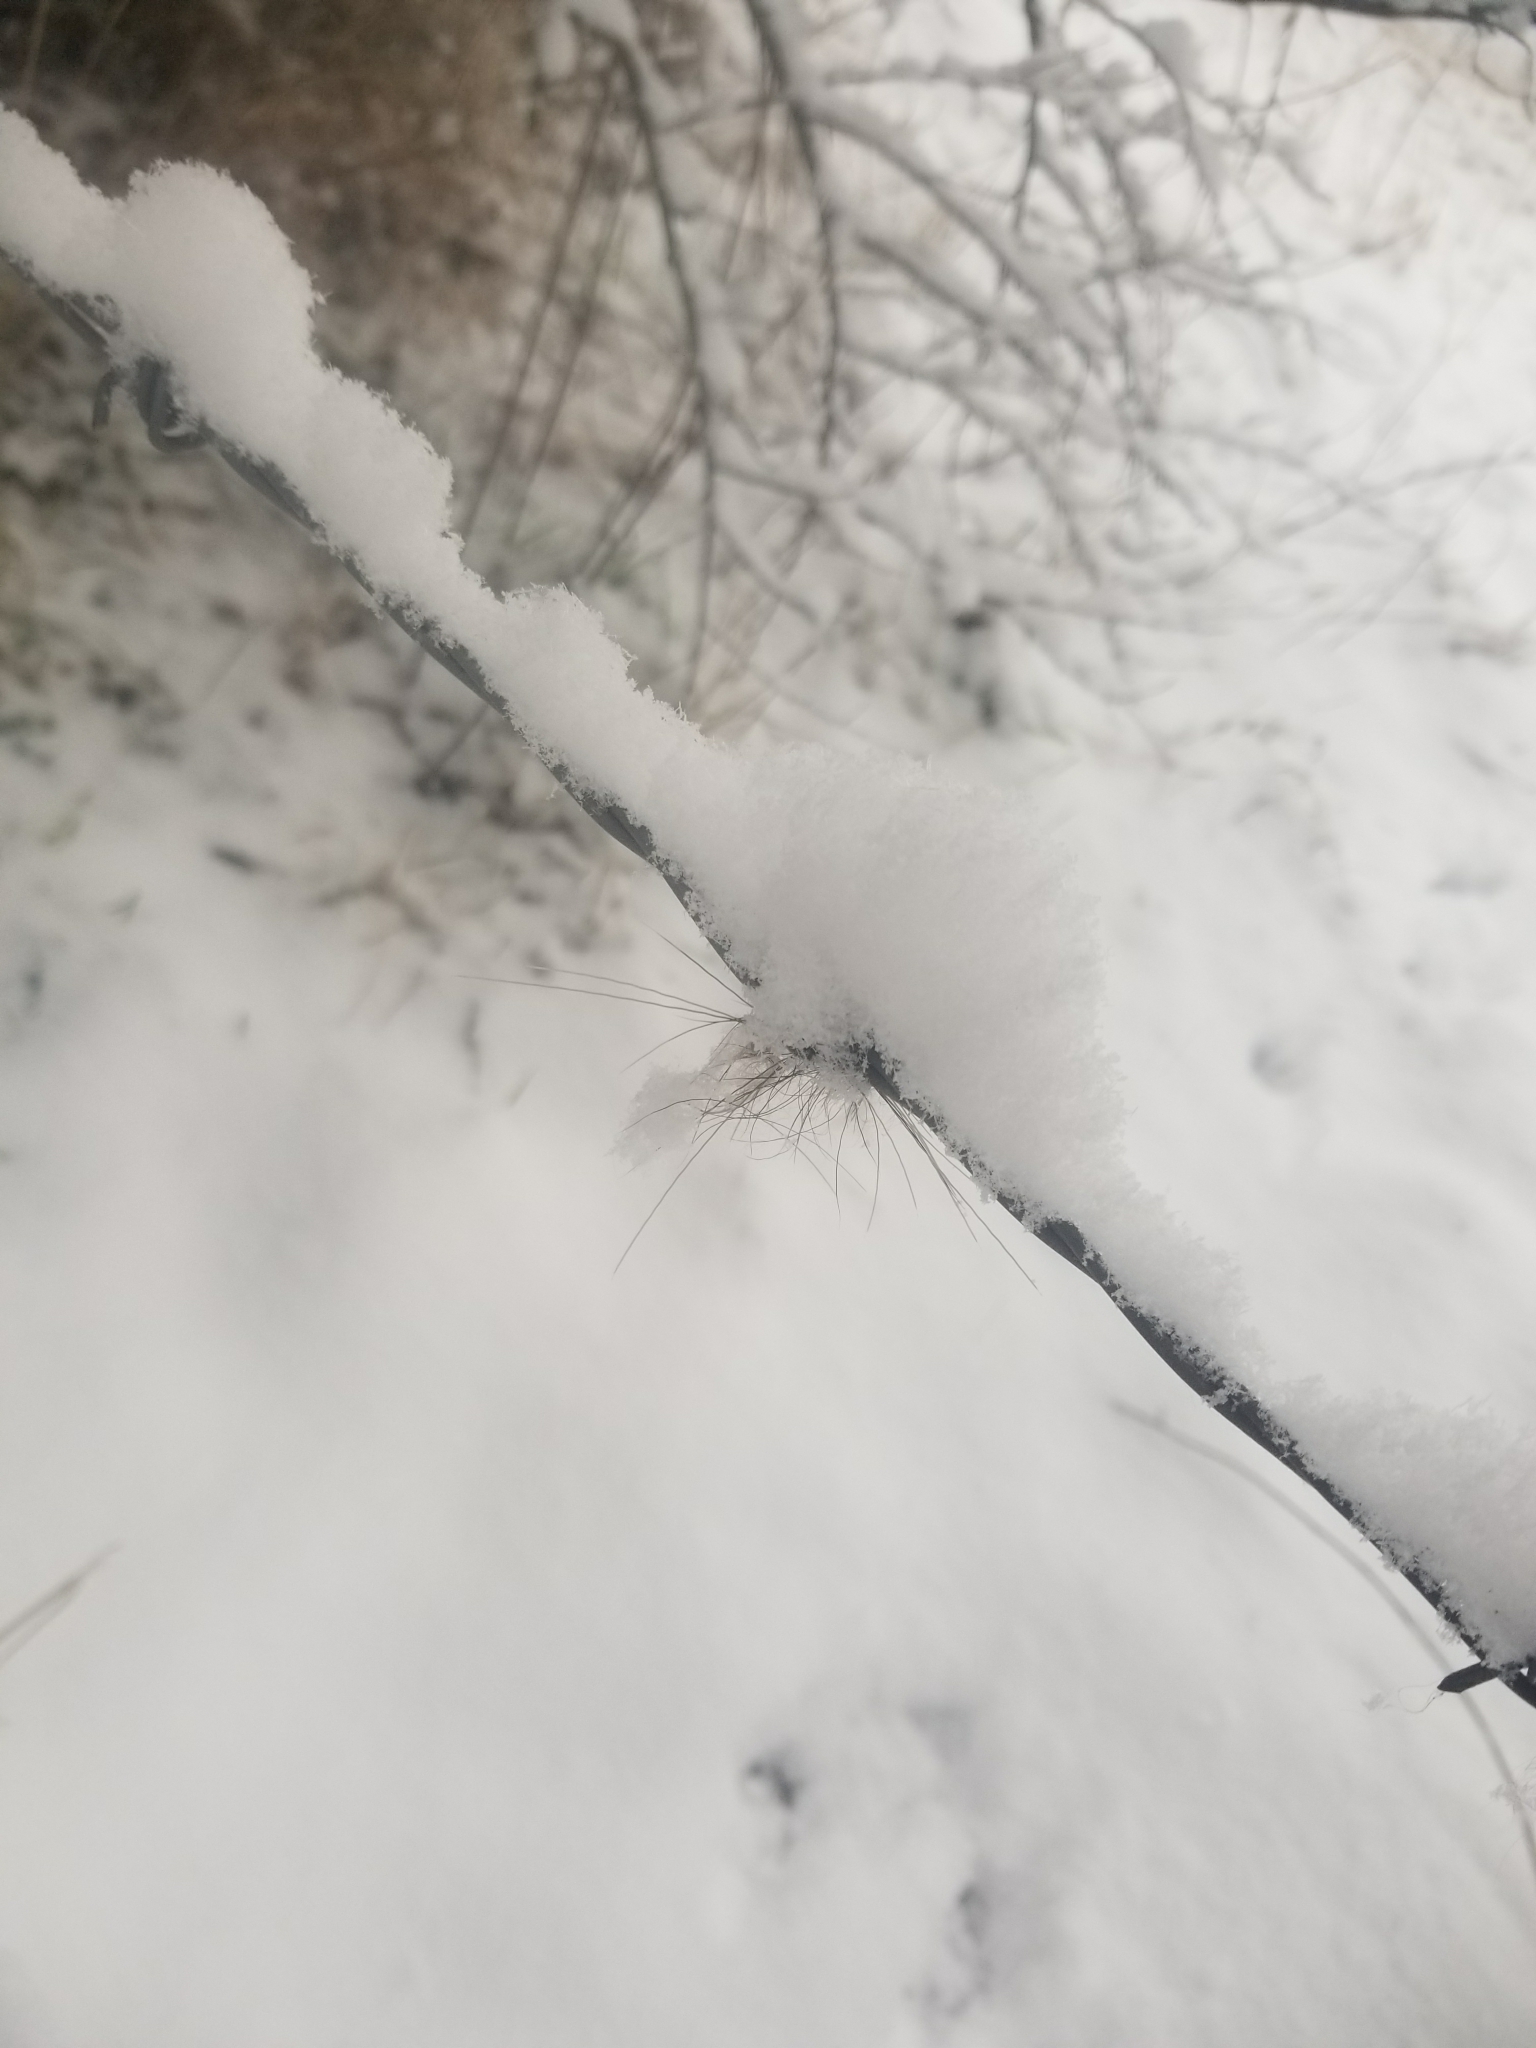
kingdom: Animalia
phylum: Chordata
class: Mammalia
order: Carnivora
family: Canidae
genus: Canis
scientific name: Canis latrans
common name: Coyote
